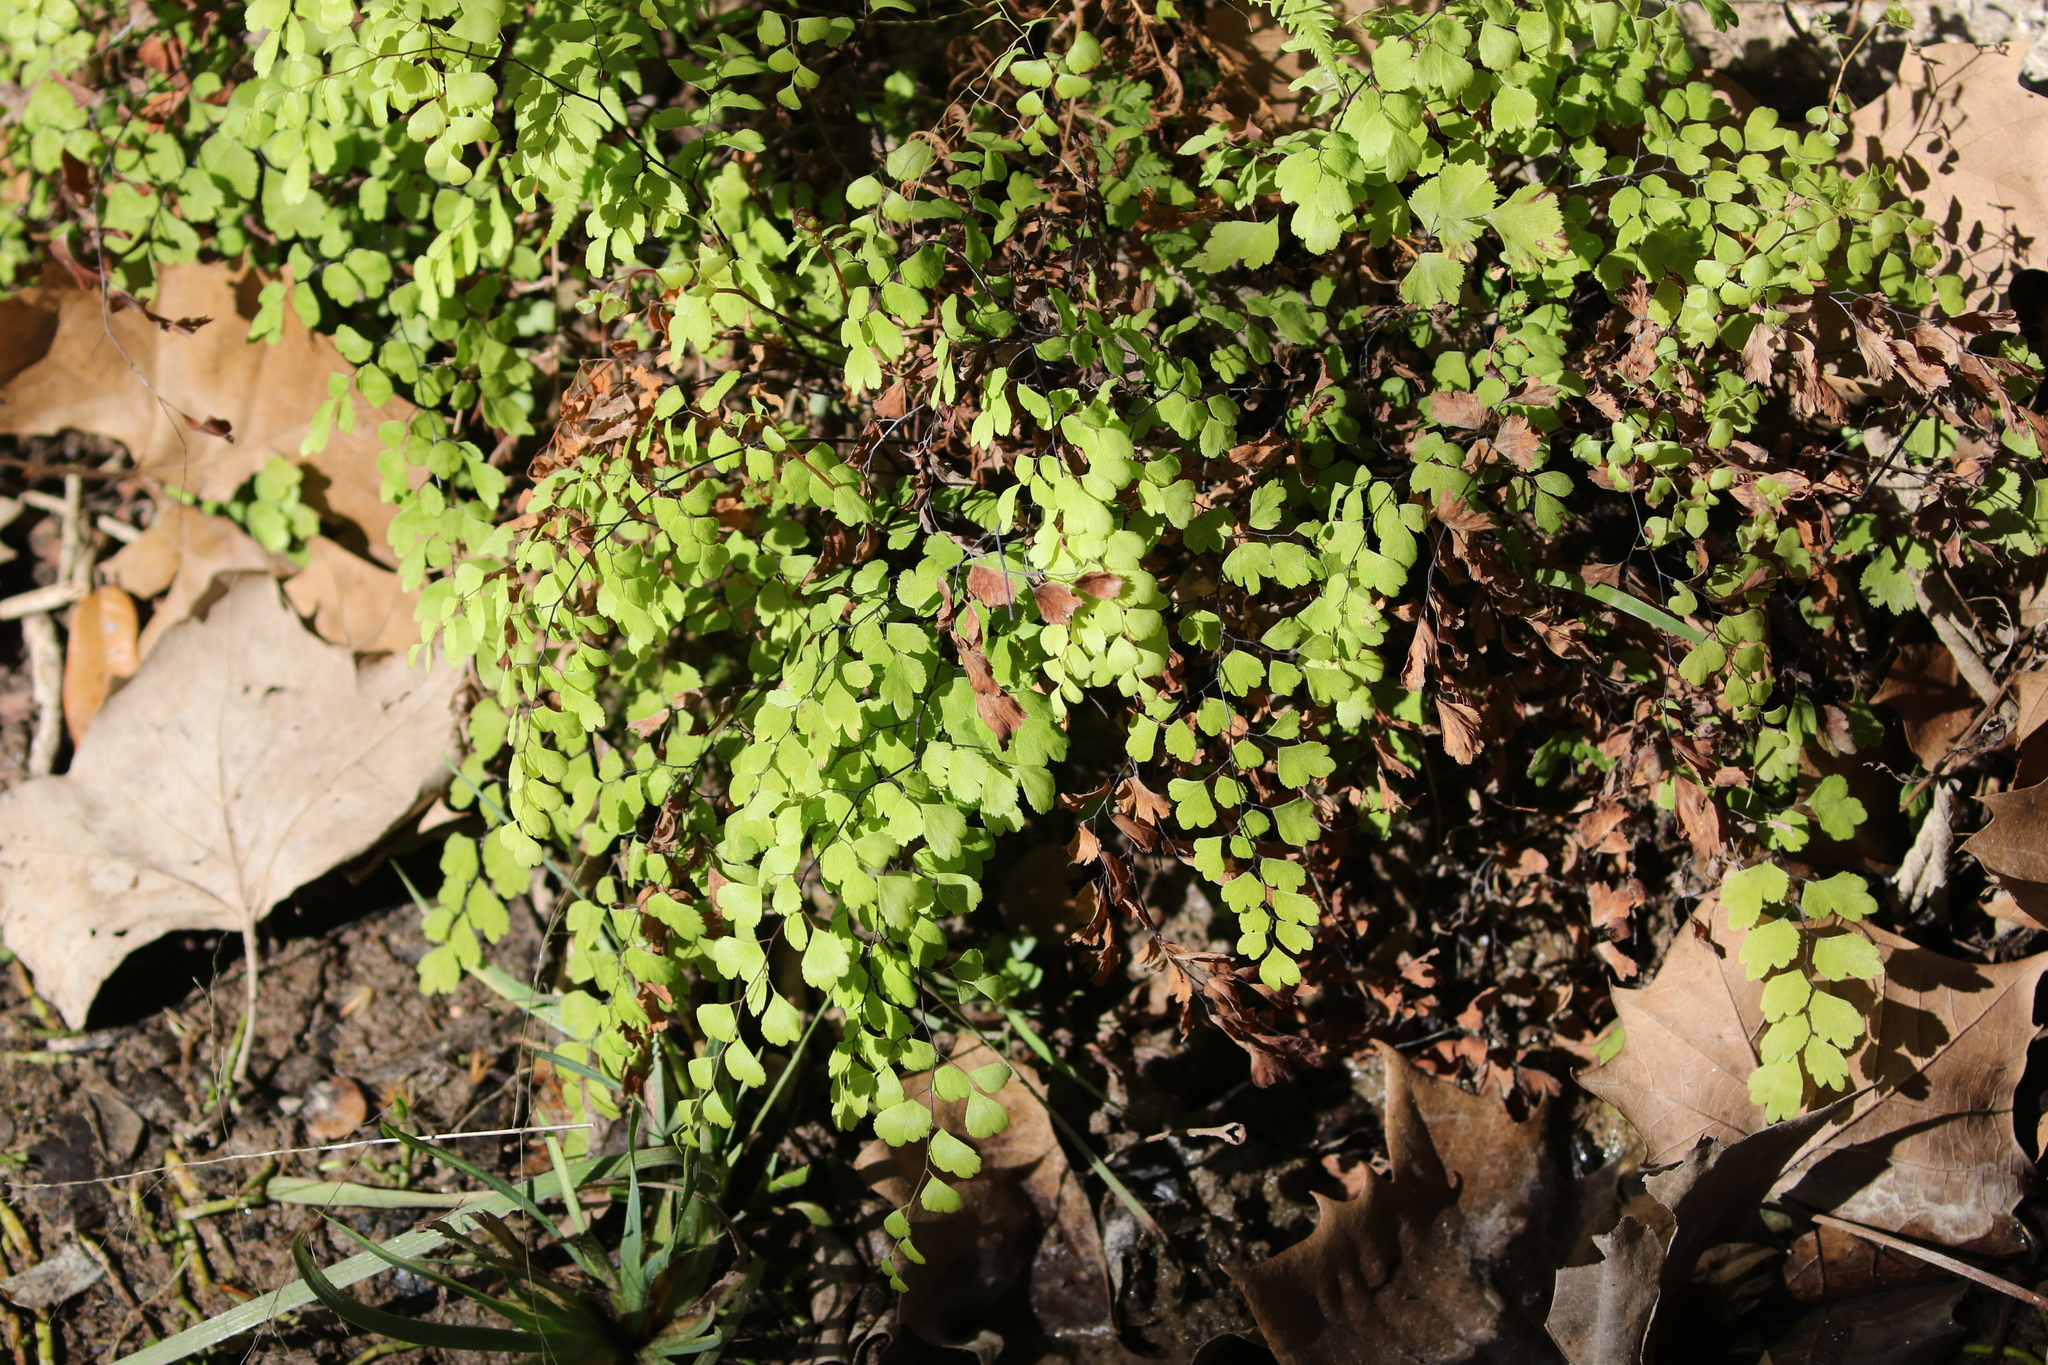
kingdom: Plantae
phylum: Tracheophyta
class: Polypodiopsida
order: Polypodiales
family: Pteridaceae
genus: Adiantum
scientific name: Adiantum capillus-veneris
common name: Maidenhair fern
